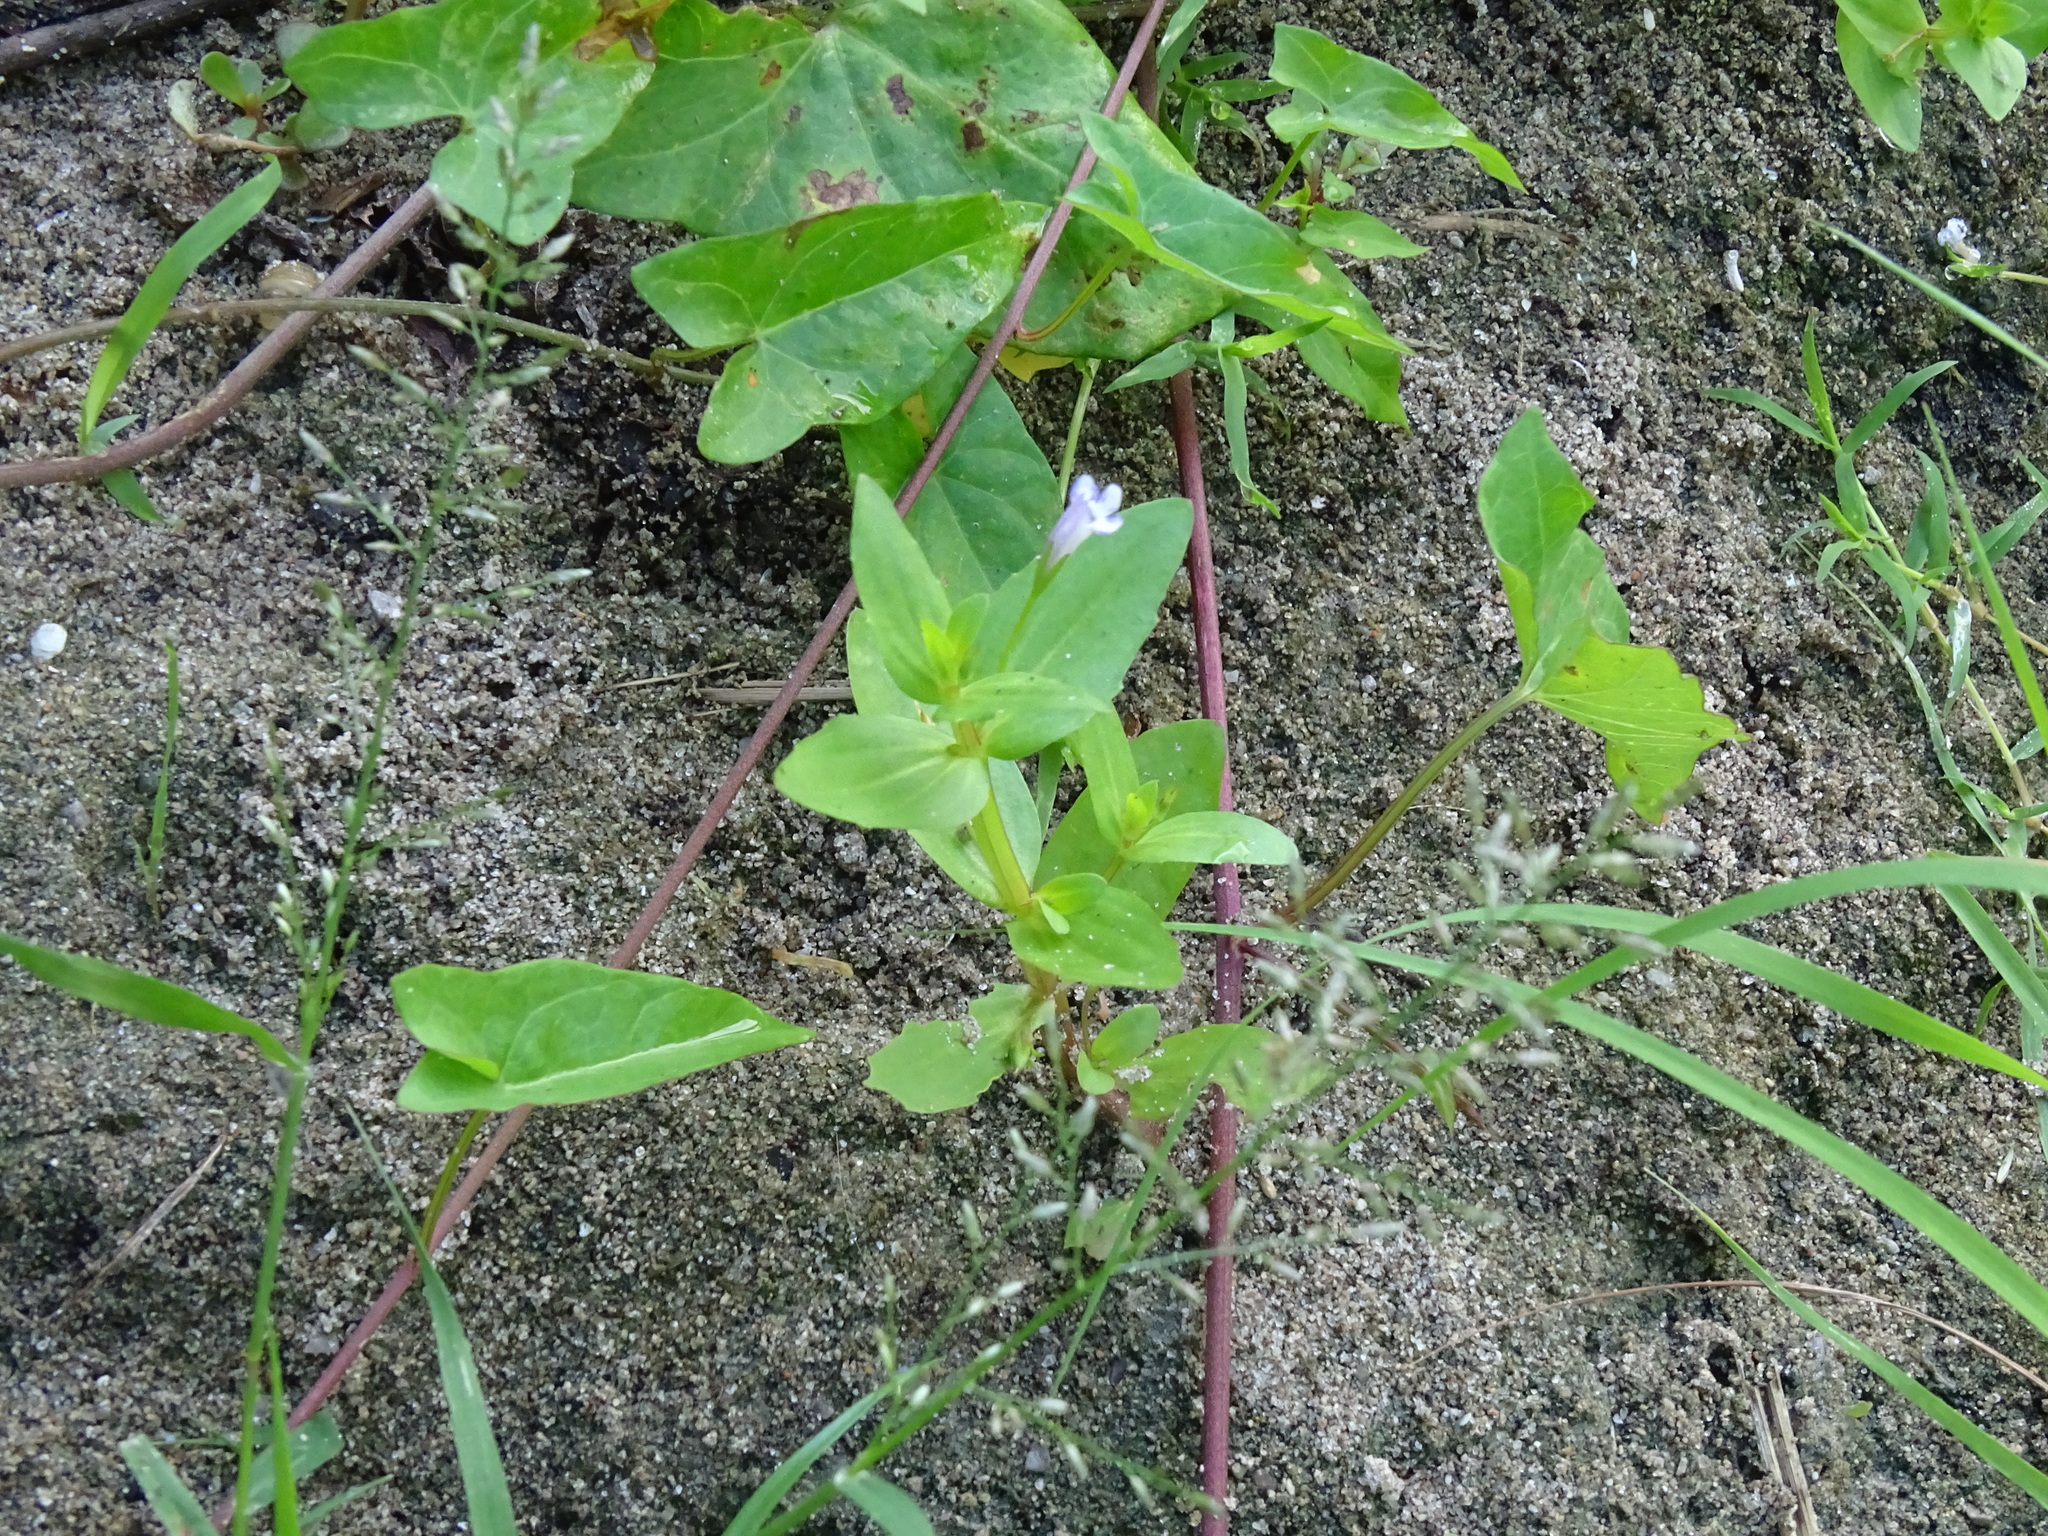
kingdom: Plantae
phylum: Tracheophyta
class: Magnoliopsida
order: Lamiales
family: Linderniaceae
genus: Lindernia
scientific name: Lindernia dubia
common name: Annual false pimpernel
